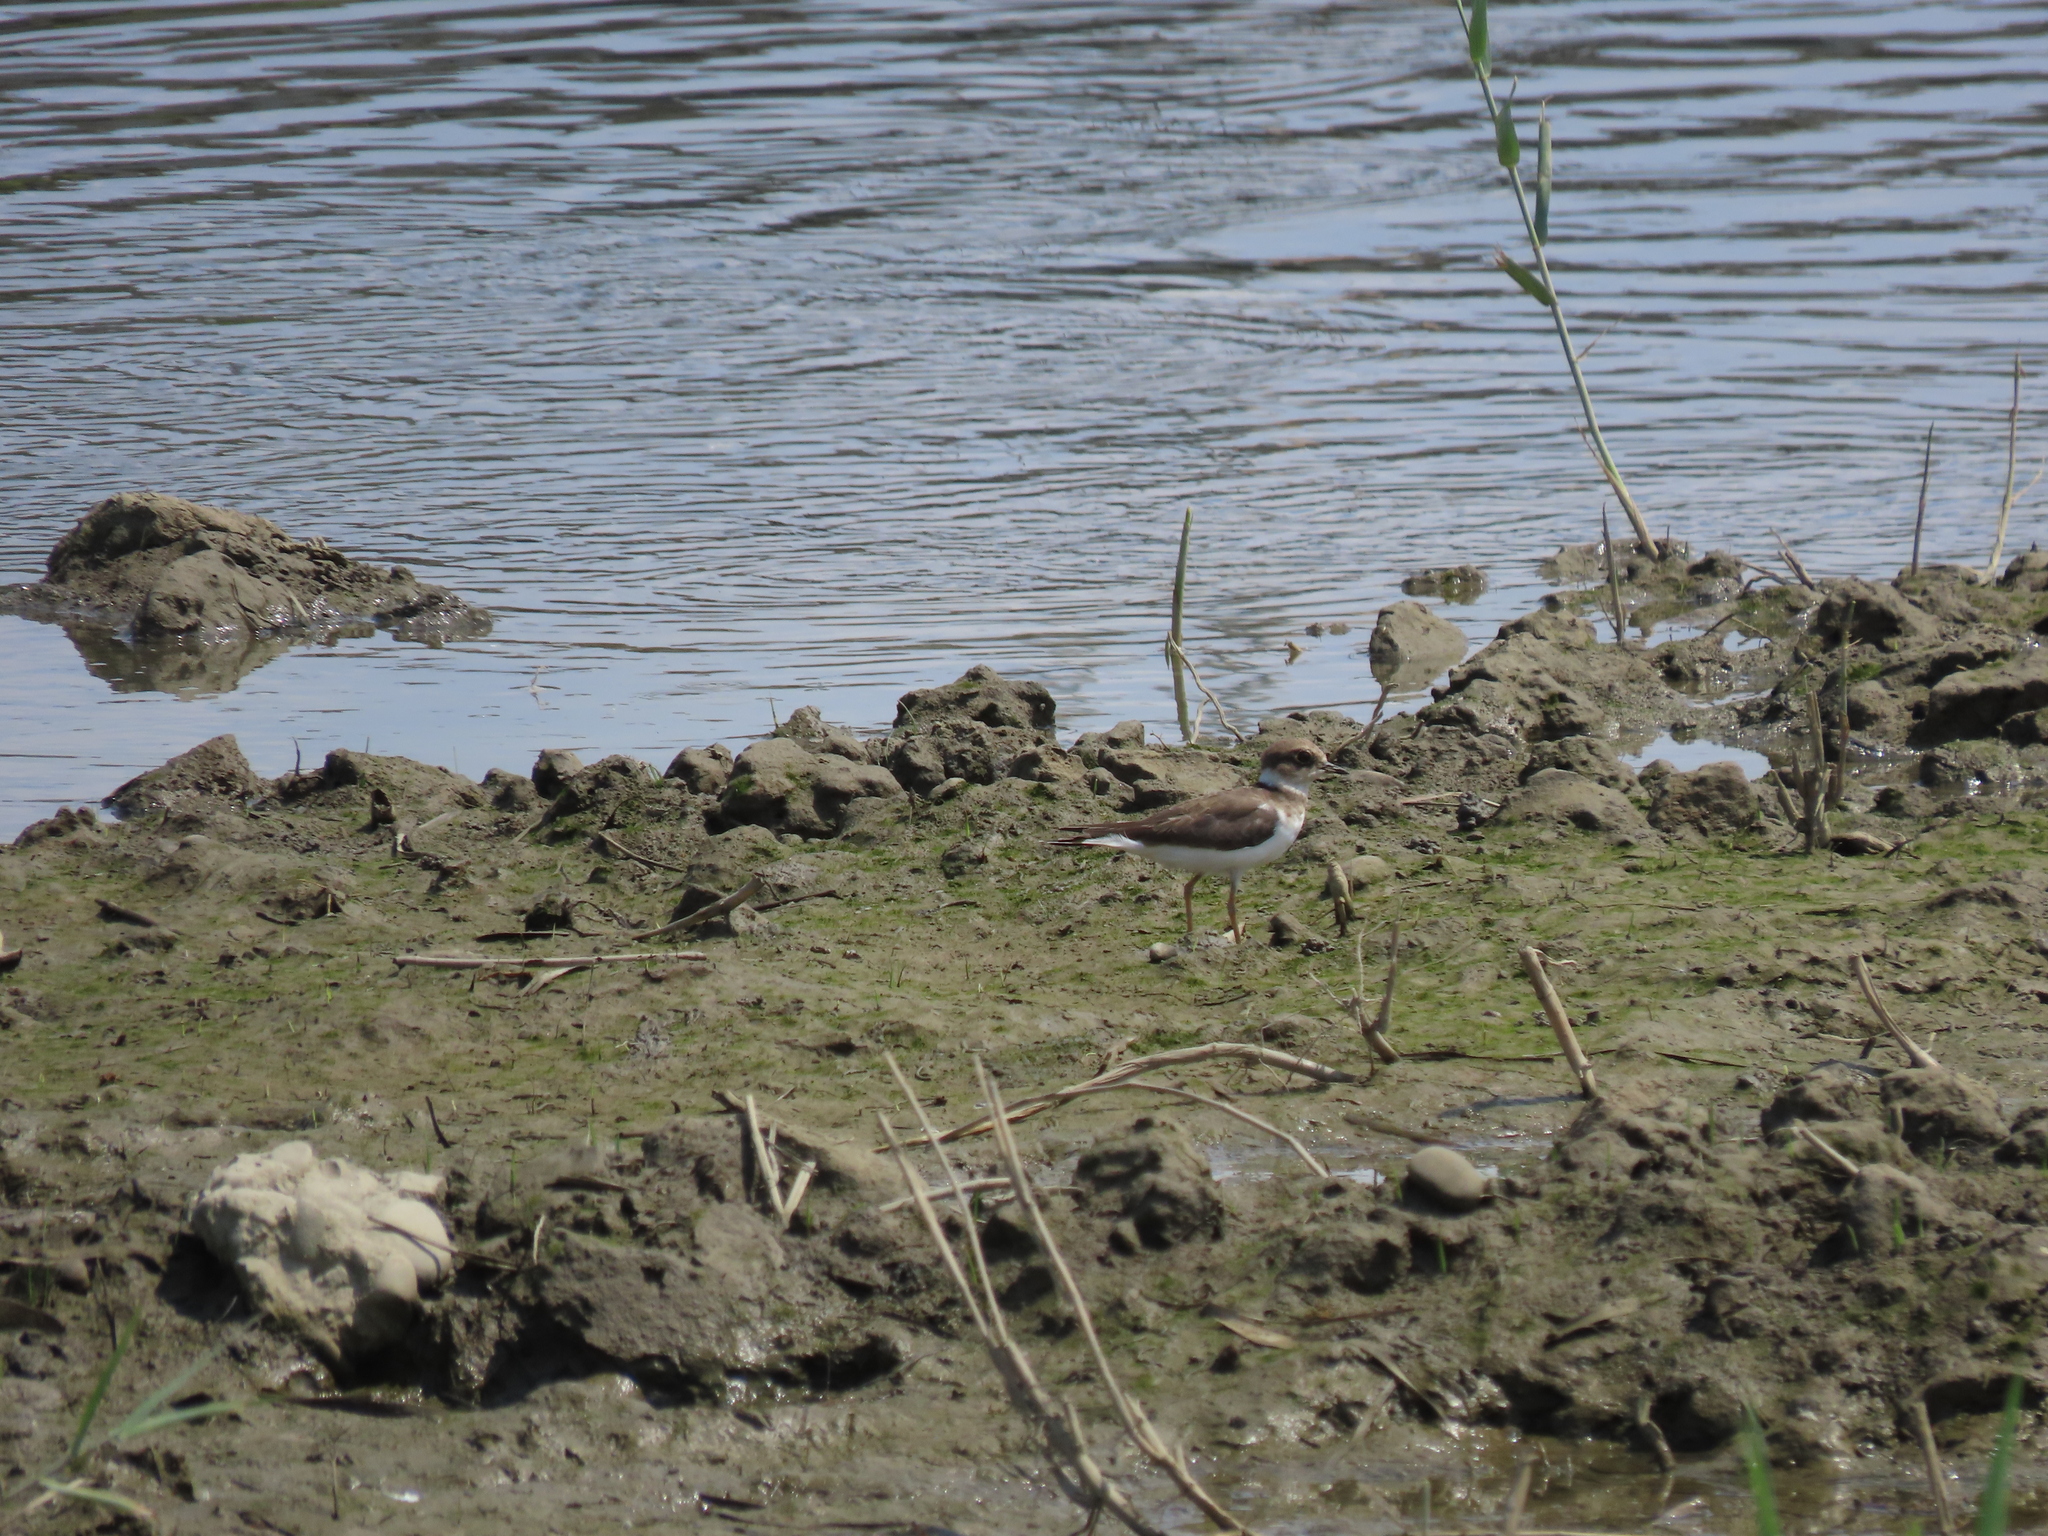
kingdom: Animalia
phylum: Chordata
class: Aves
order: Charadriiformes
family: Charadriidae
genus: Charadrius
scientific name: Charadrius dubius
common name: Little ringed plover
